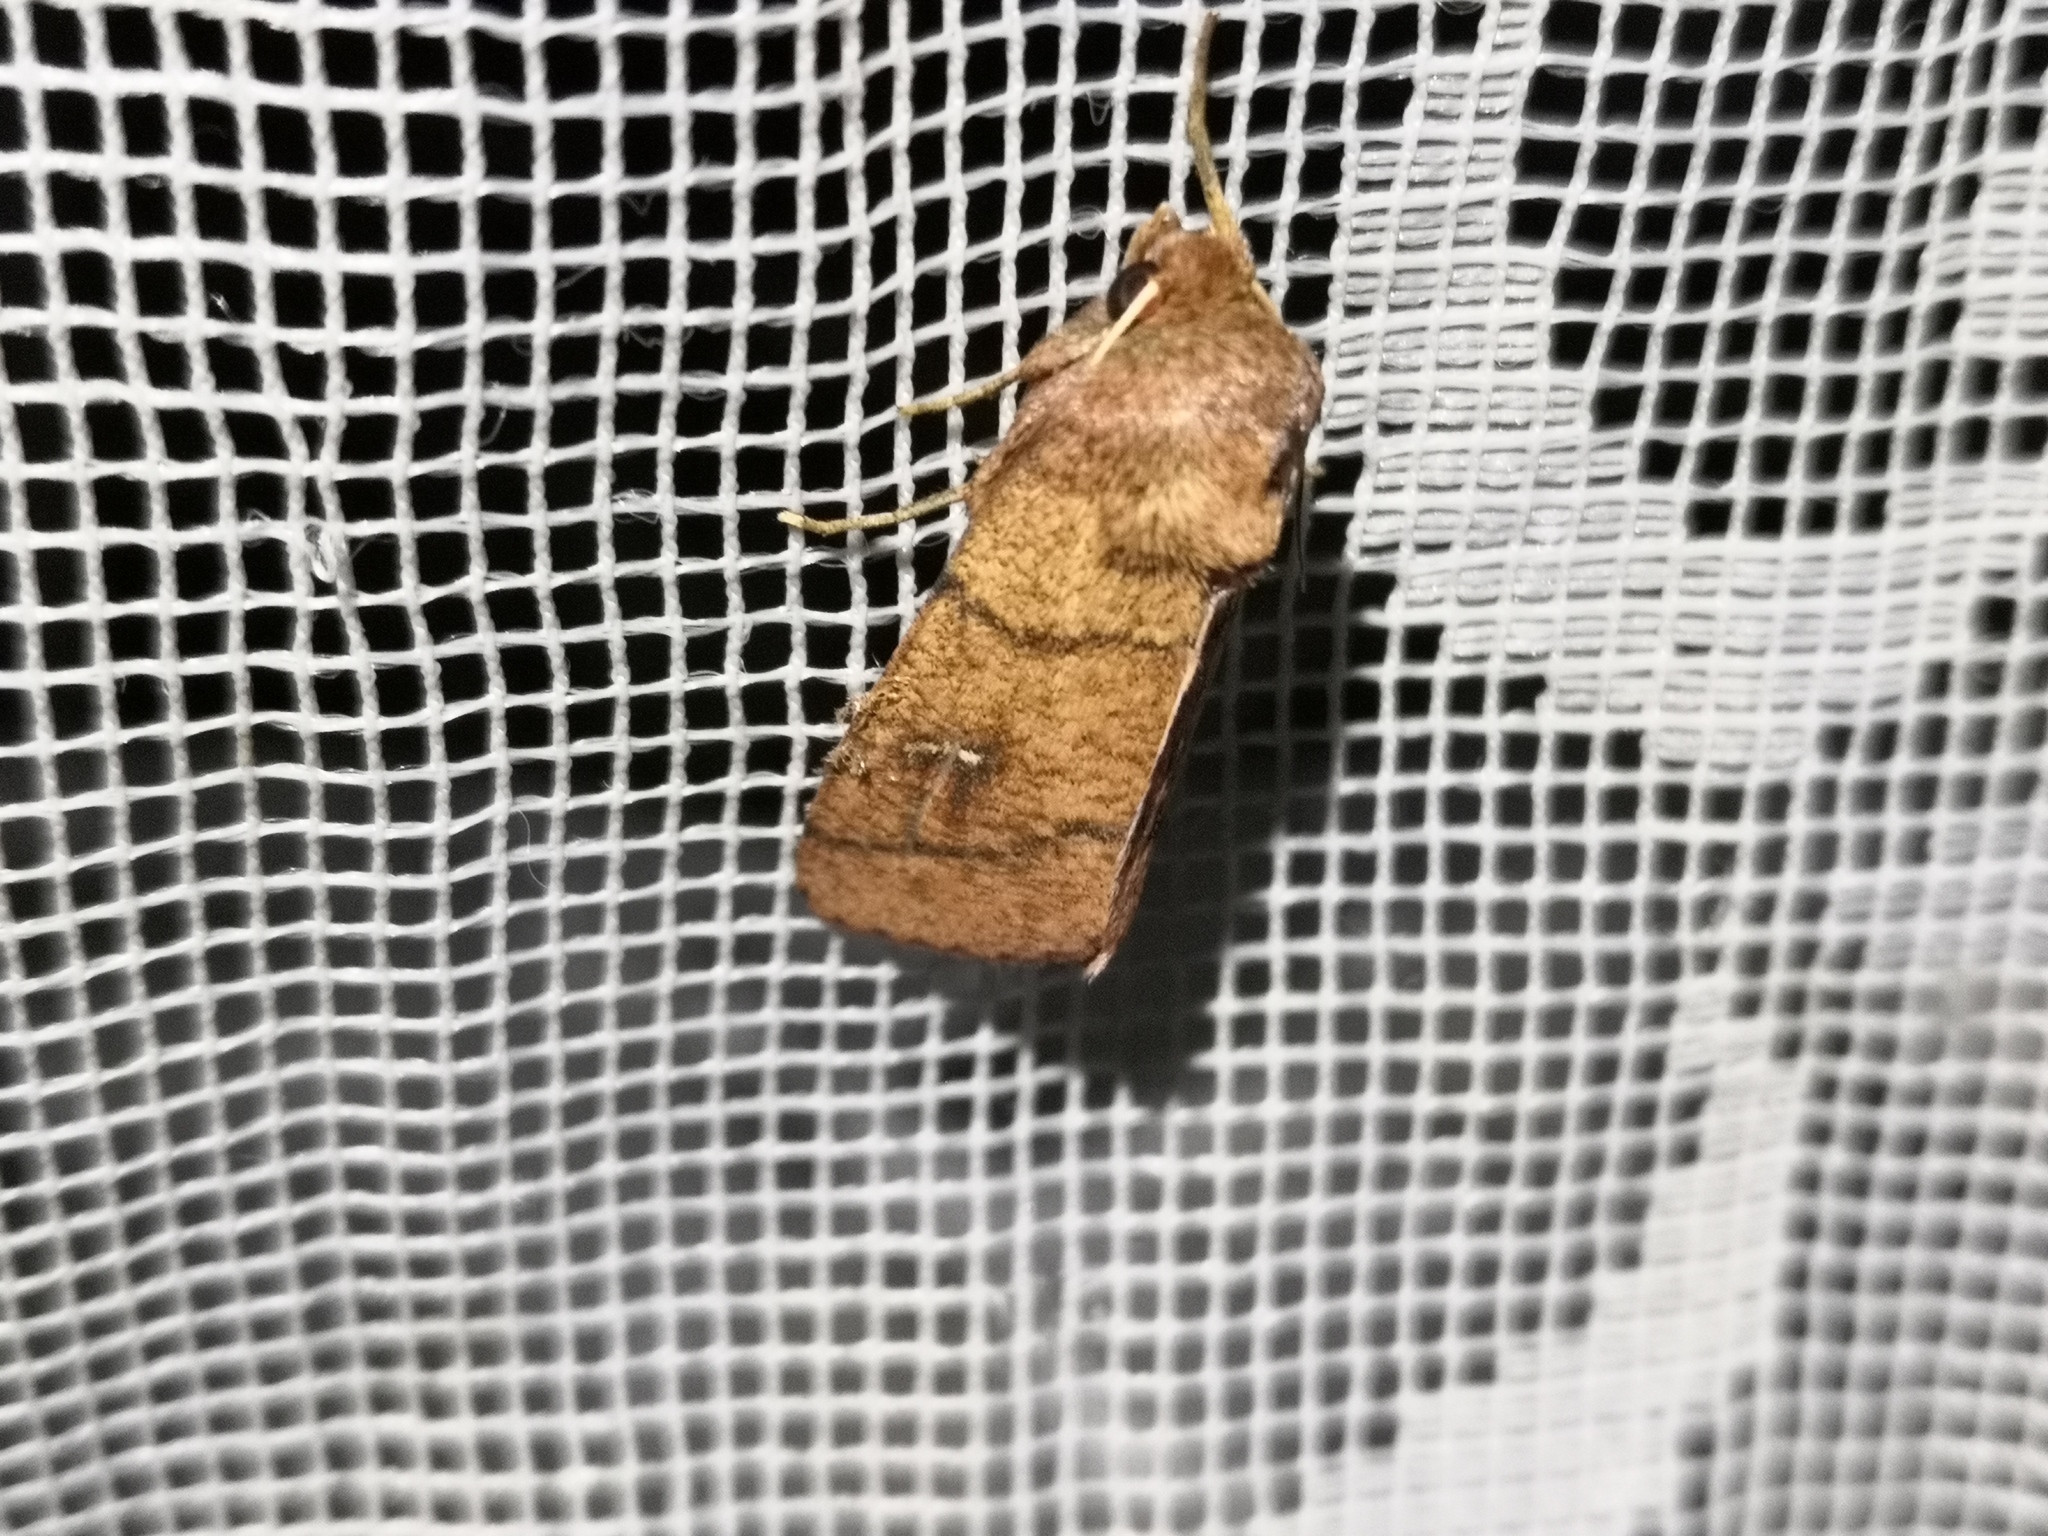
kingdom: Animalia
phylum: Arthropoda
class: Insecta
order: Lepidoptera
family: Noctuidae
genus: Mythimna
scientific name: Mythimna turca
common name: Double line
